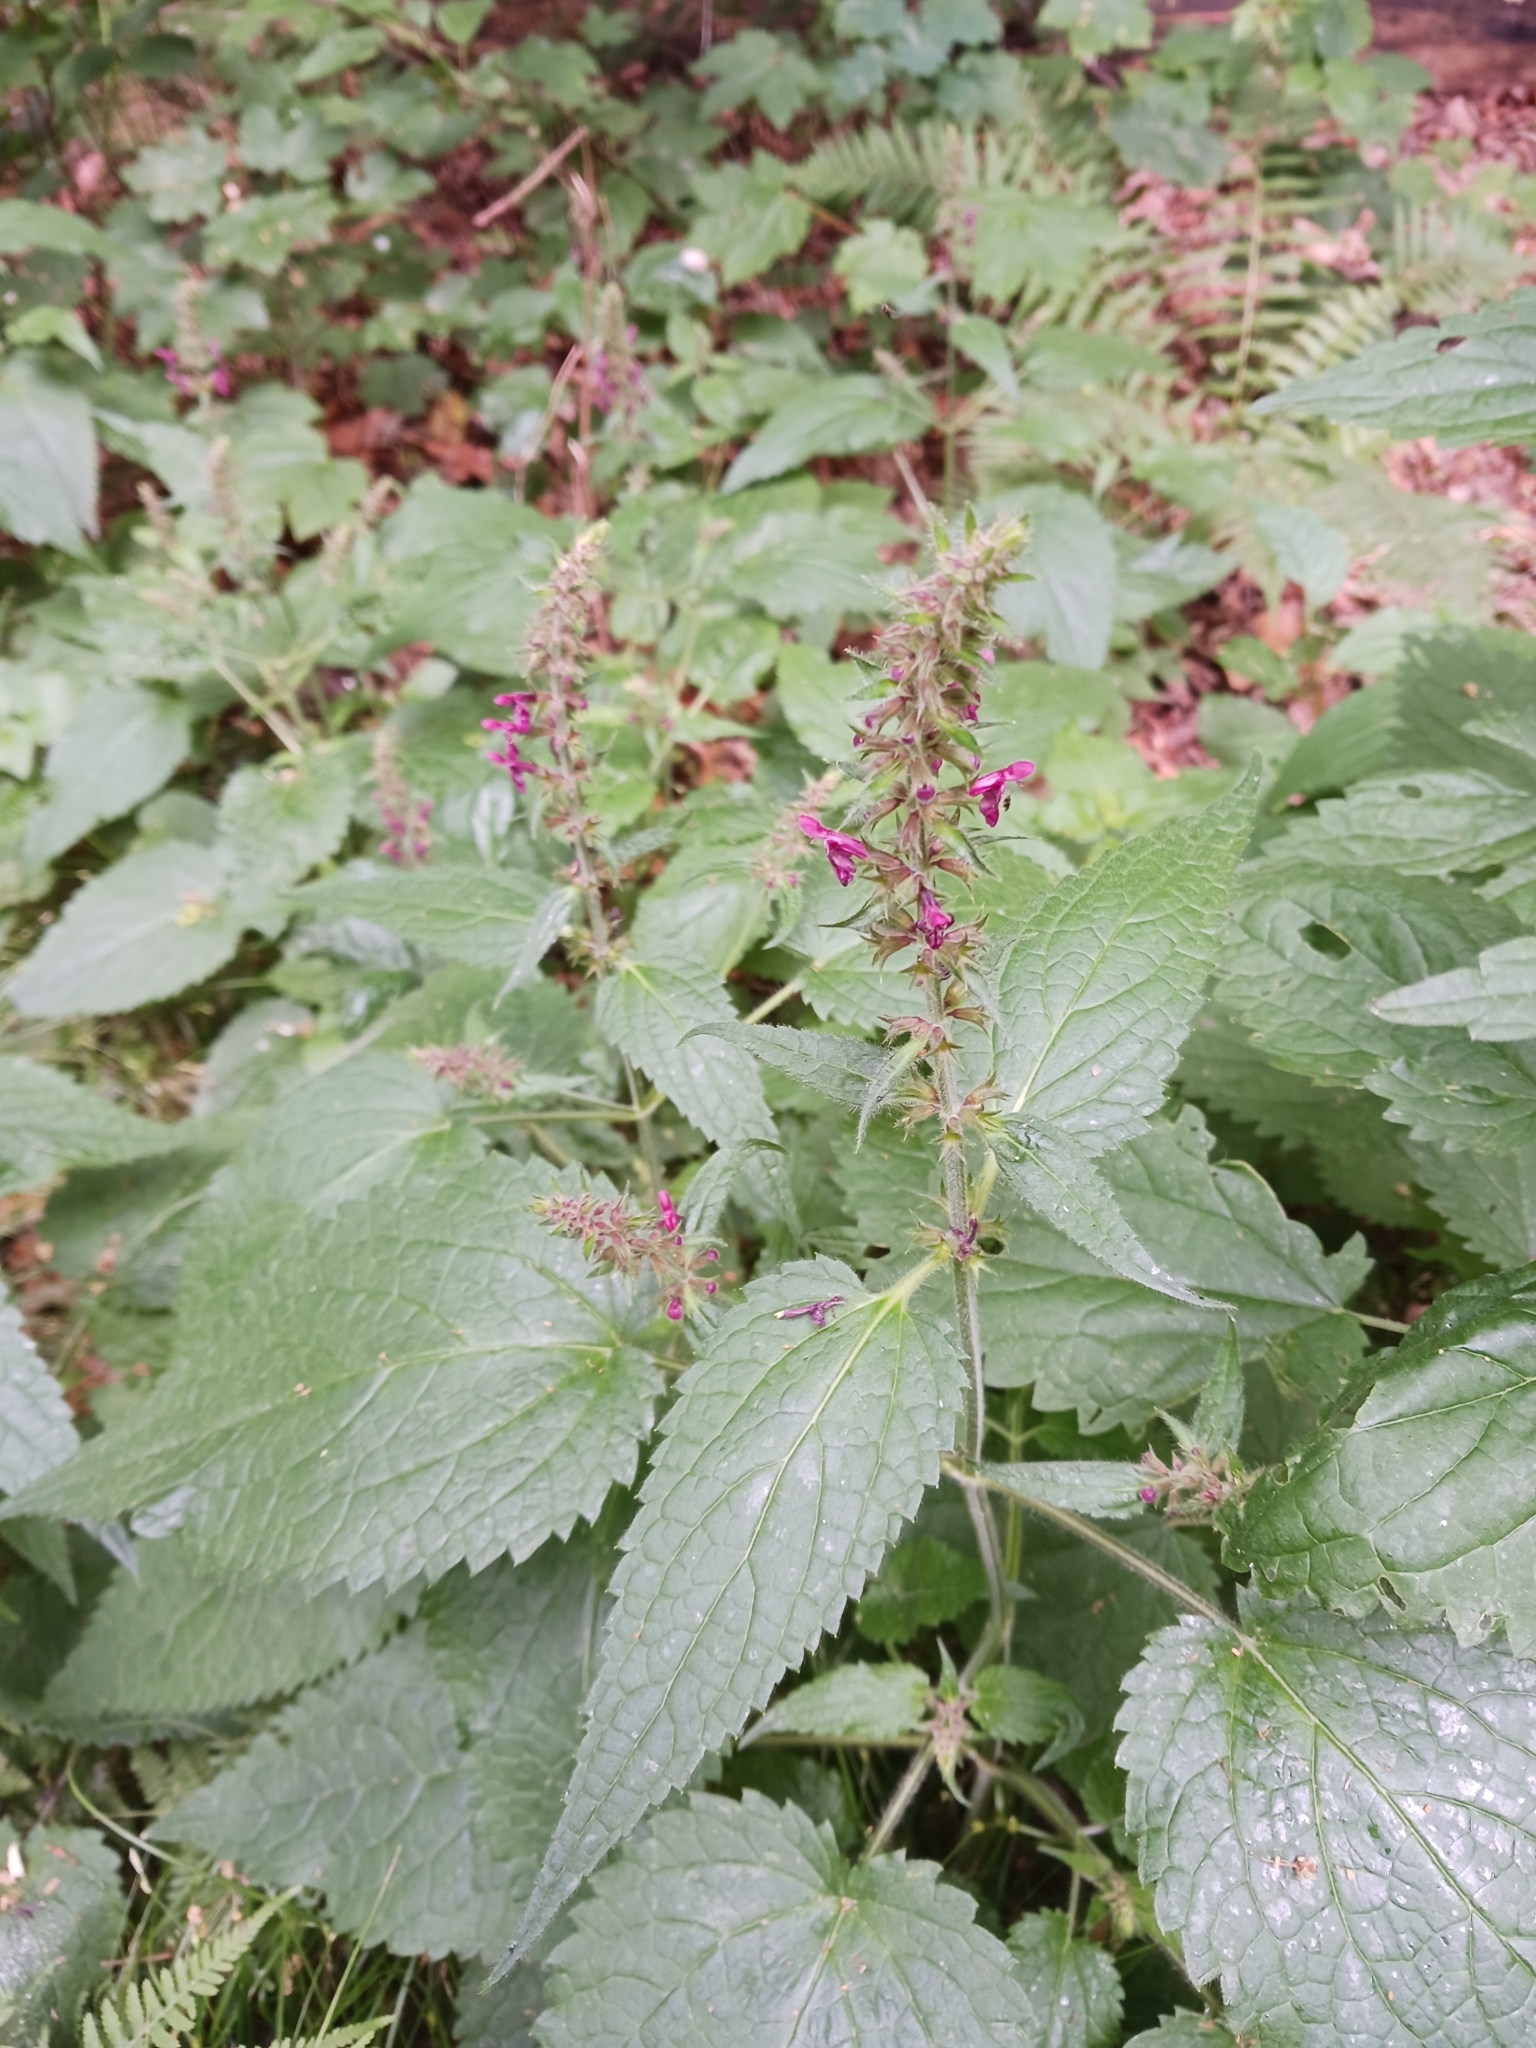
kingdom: Plantae
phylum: Tracheophyta
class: Magnoliopsida
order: Lamiales
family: Lamiaceae
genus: Stachys
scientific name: Stachys sylvatica
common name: Hedge woundwort
